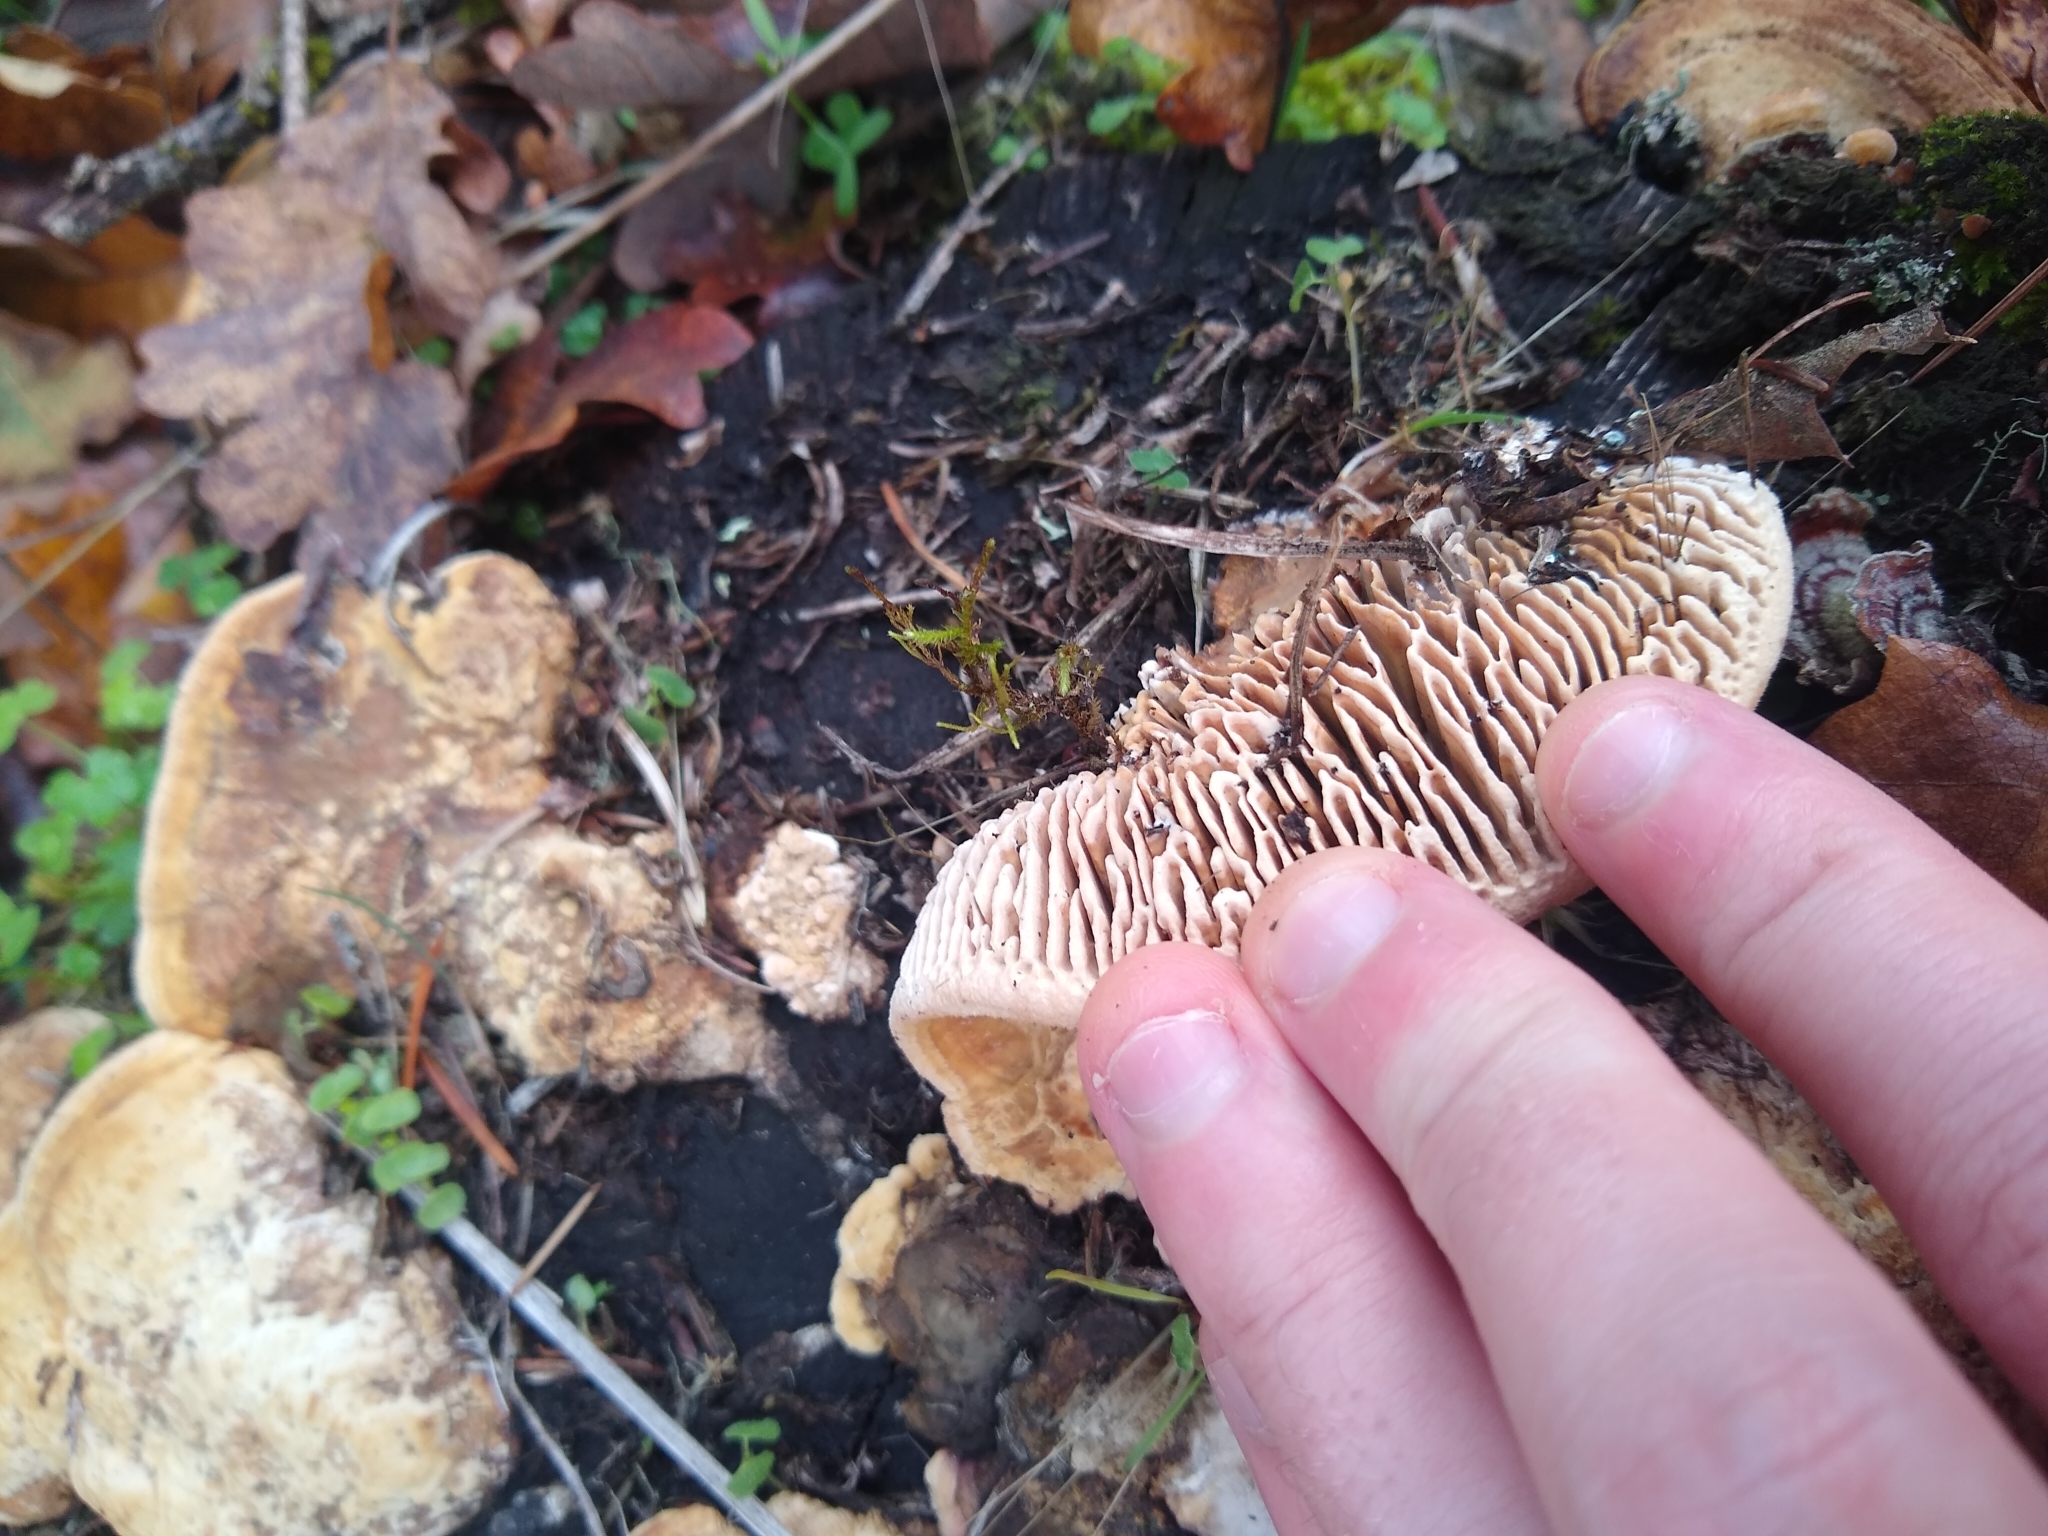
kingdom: Fungi
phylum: Basidiomycota
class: Agaricomycetes
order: Polyporales
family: Fomitopsidaceae
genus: Fomitopsis
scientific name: Fomitopsis
